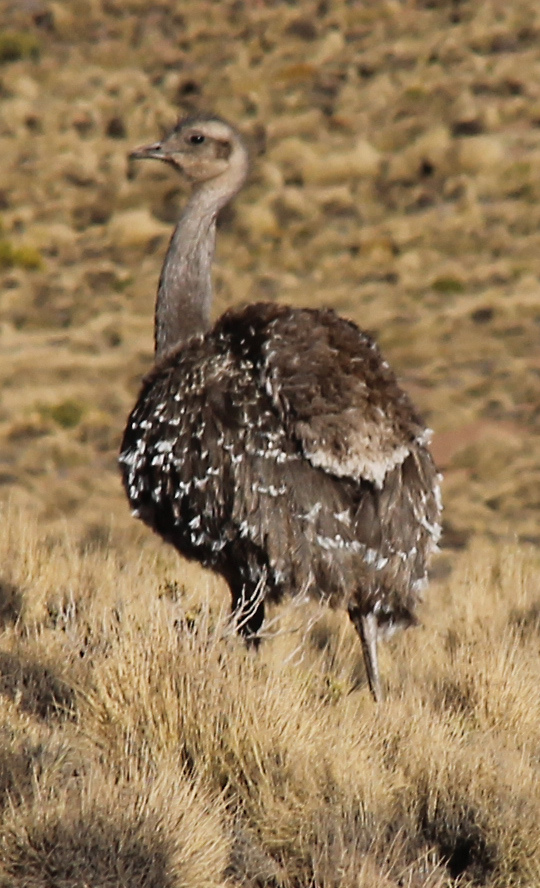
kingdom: Animalia
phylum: Chordata
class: Aves
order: Rheiformes
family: Rheidae
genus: Rhea
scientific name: Rhea pennata
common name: Lesser rhea
